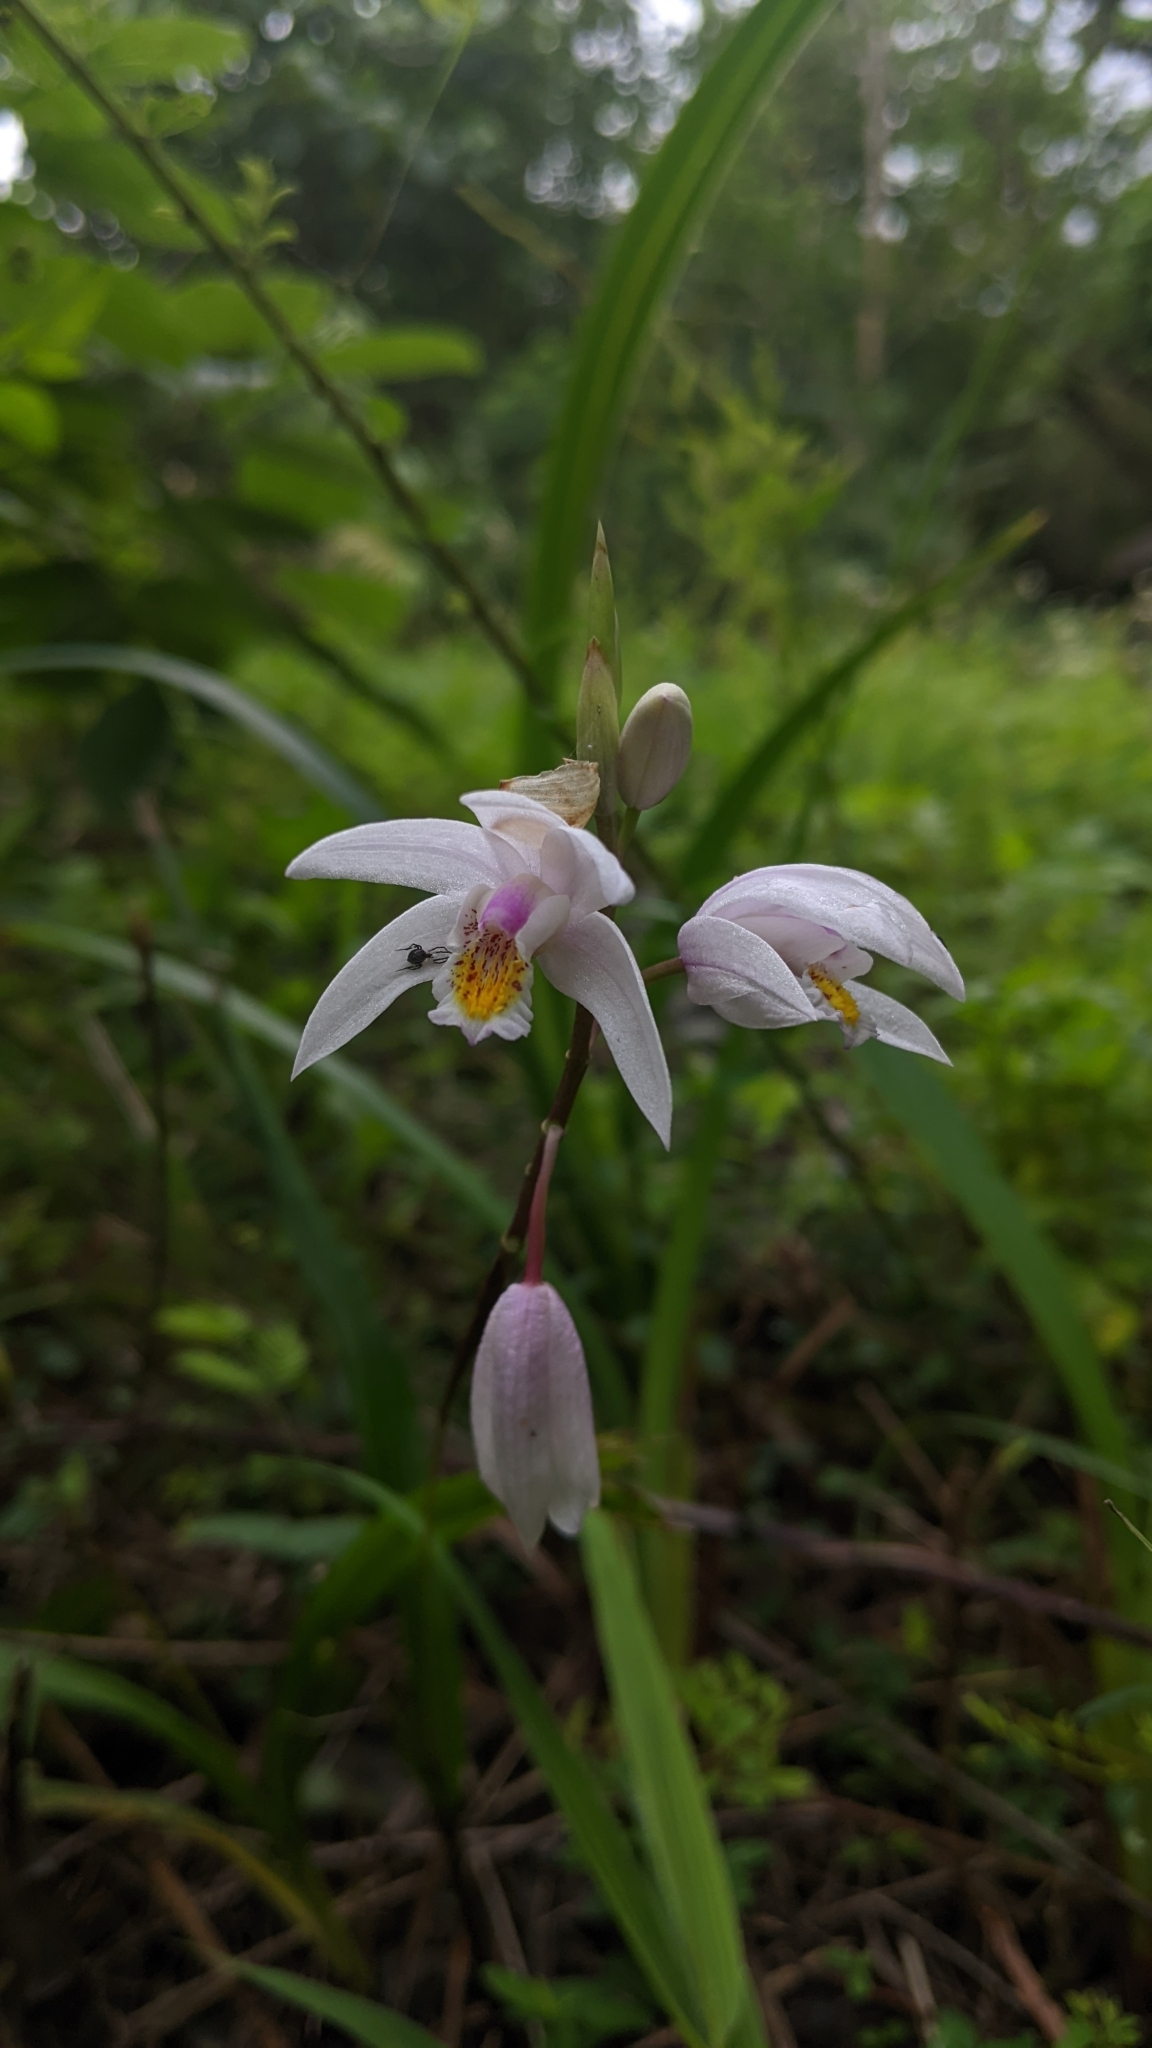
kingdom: Plantae
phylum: Tracheophyta
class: Liliopsida
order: Asparagales
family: Orchidaceae
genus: Bletilla
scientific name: Bletilla formosana
